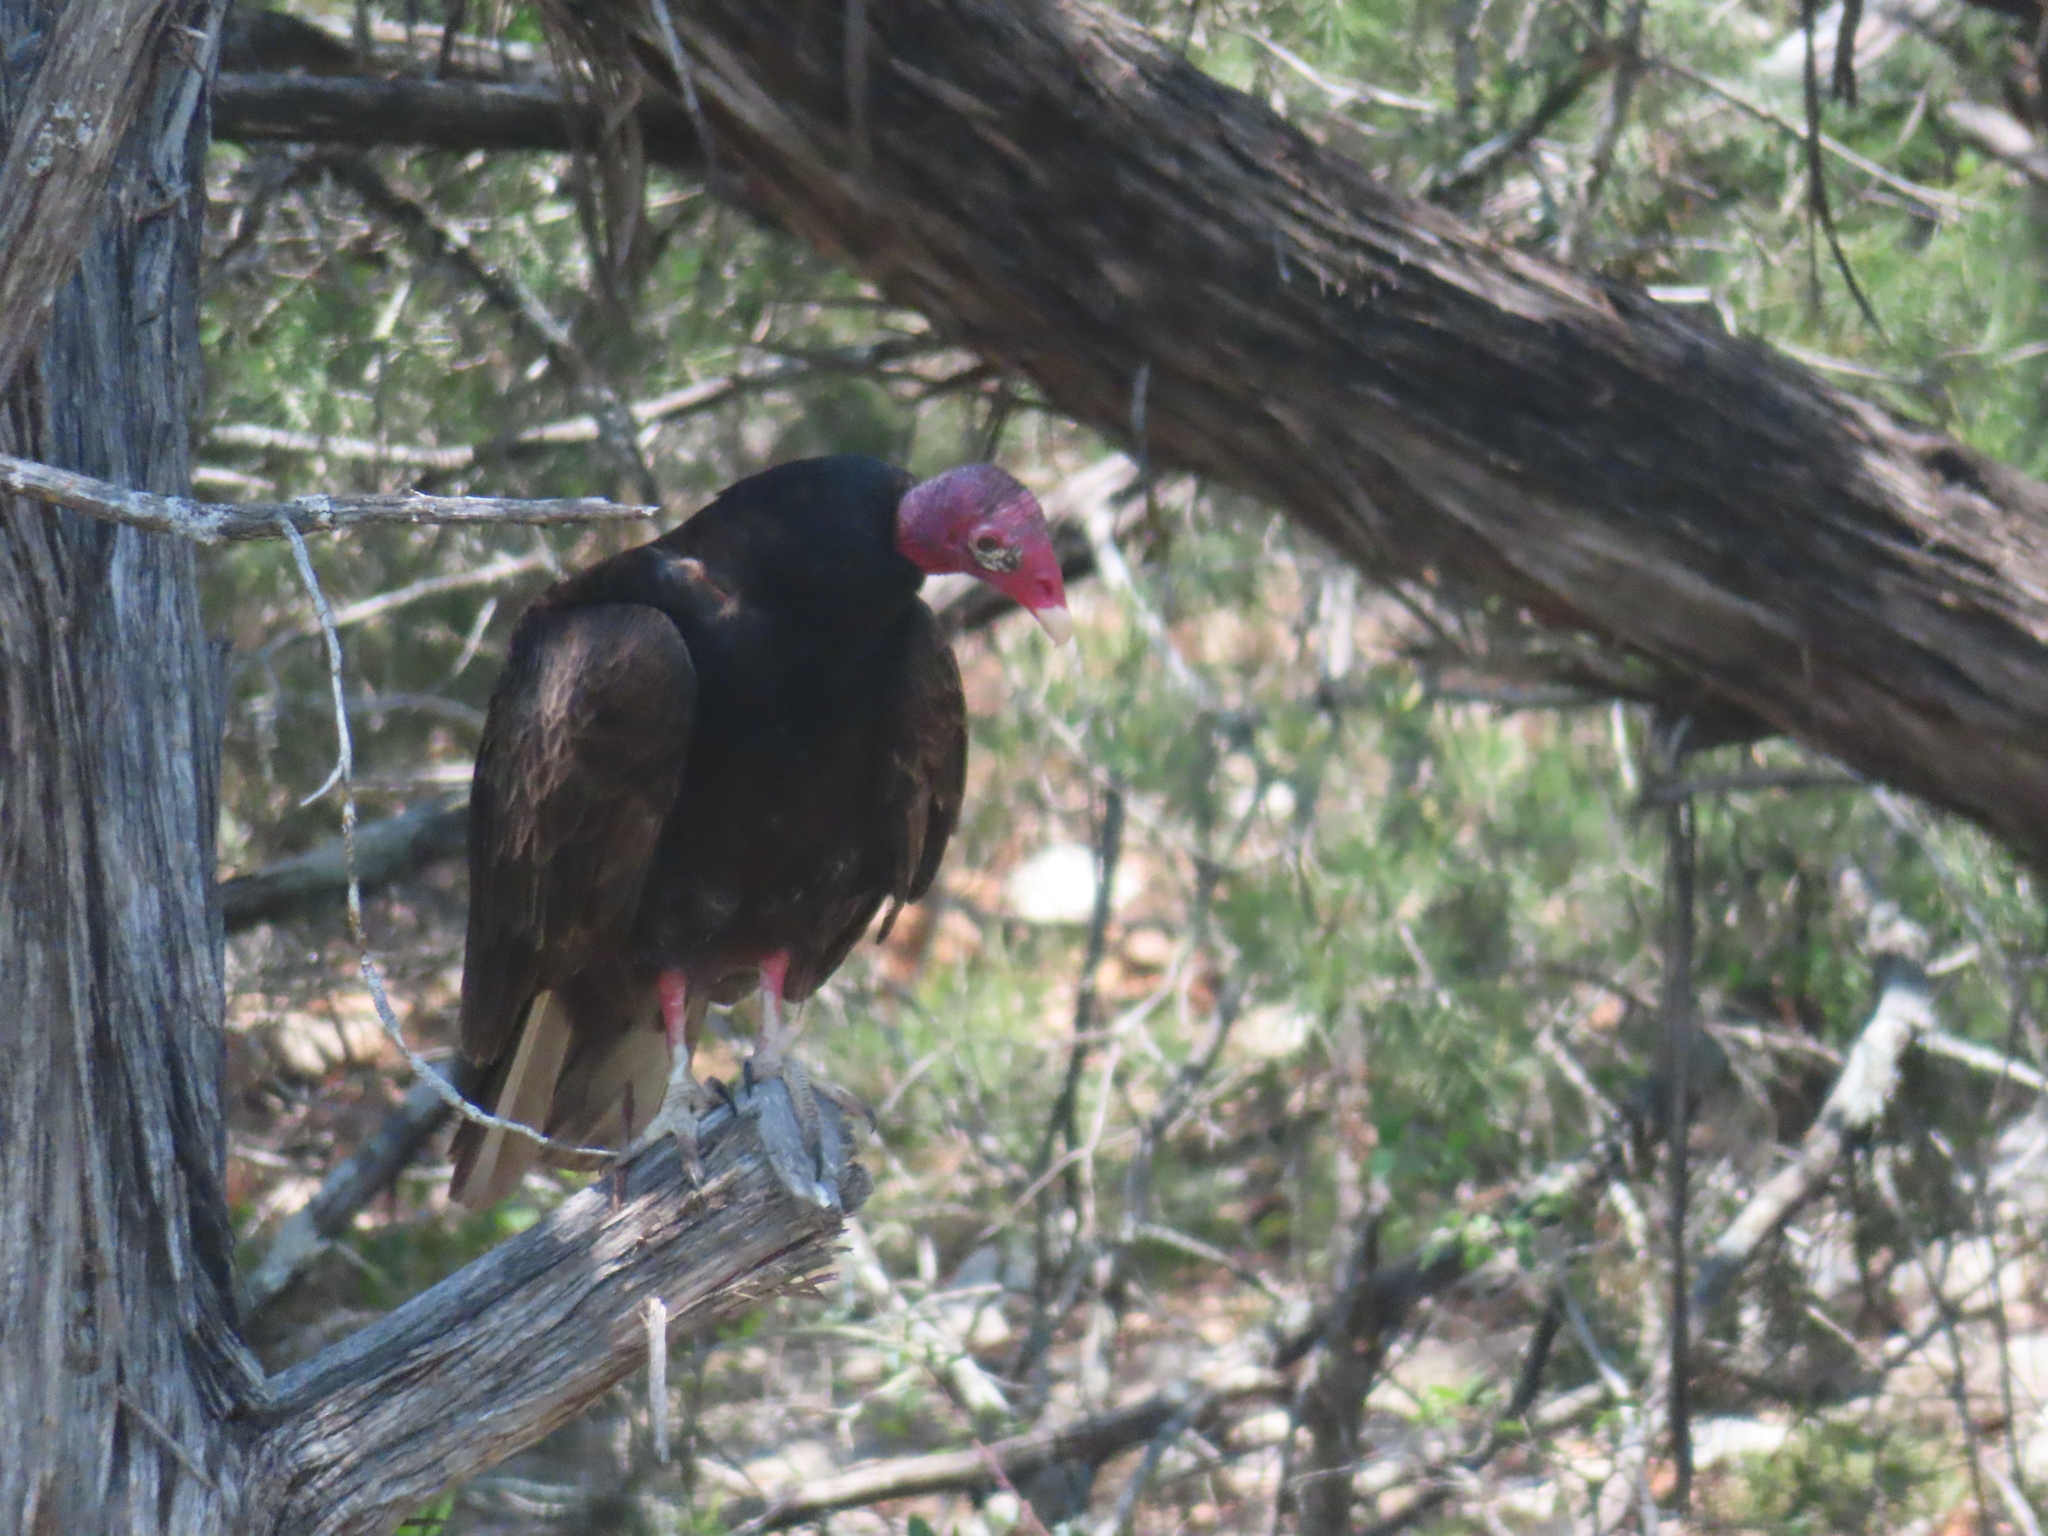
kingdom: Animalia
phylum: Chordata
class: Aves
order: Accipitriformes
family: Cathartidae
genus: Cathartes
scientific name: Cathartes aura
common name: Turkey vulture
